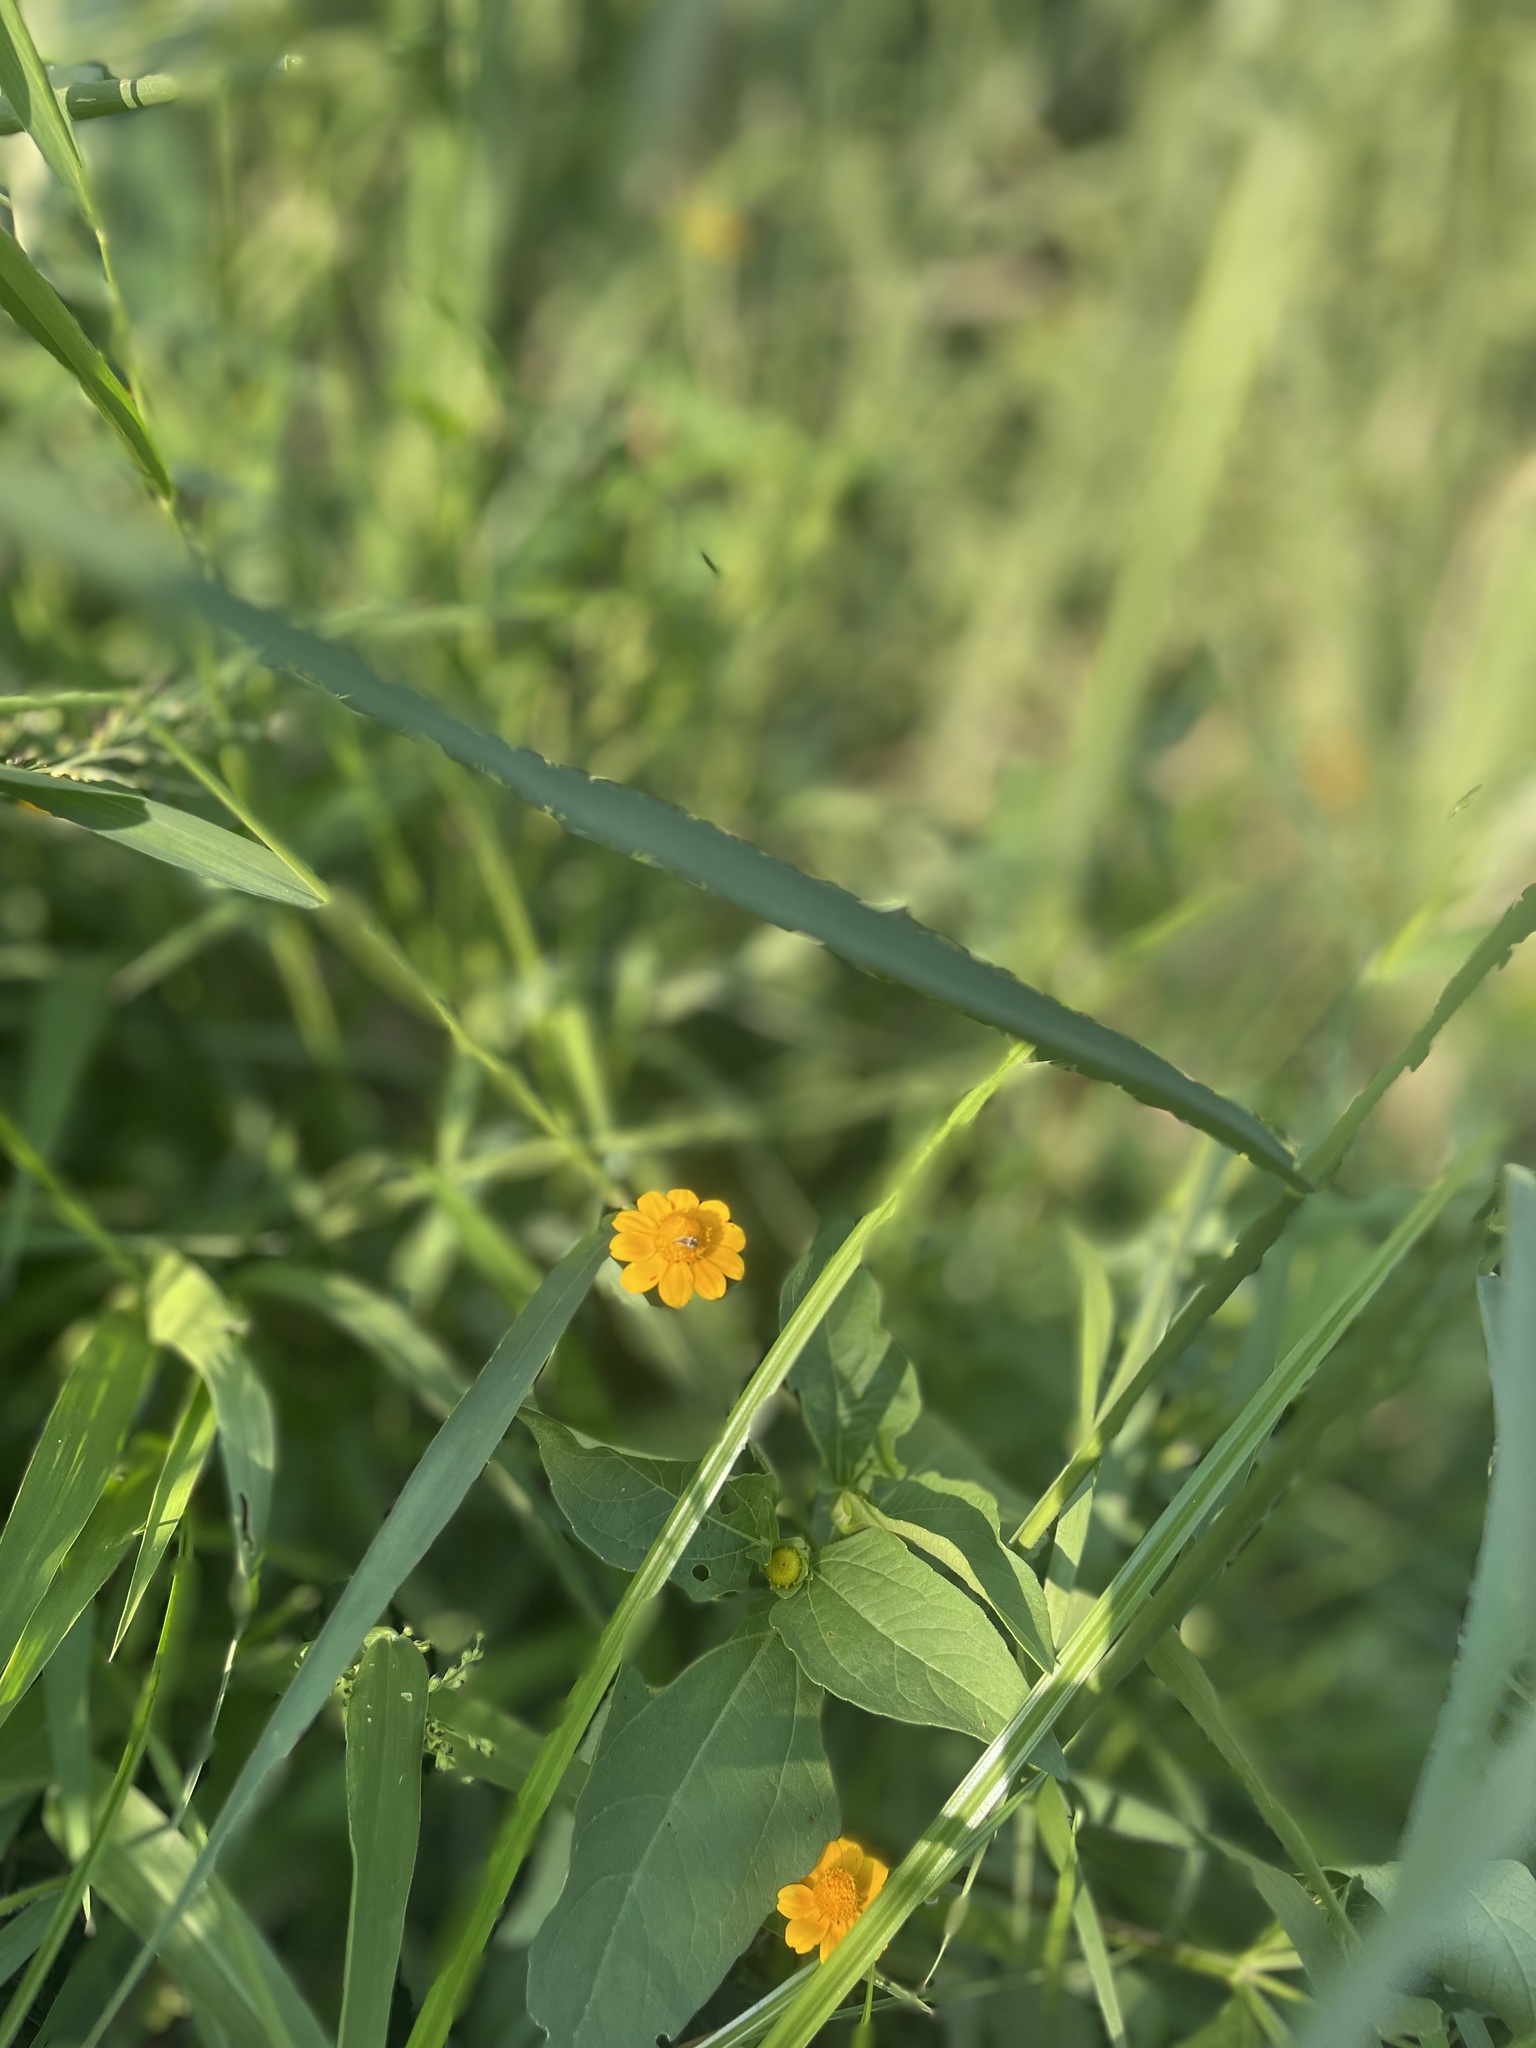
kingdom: Plantae
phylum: Tracheophyta
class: Magnoliopsida
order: Asterales
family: Asteraceae
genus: Melampodium
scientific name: Melampodium divaricatum
